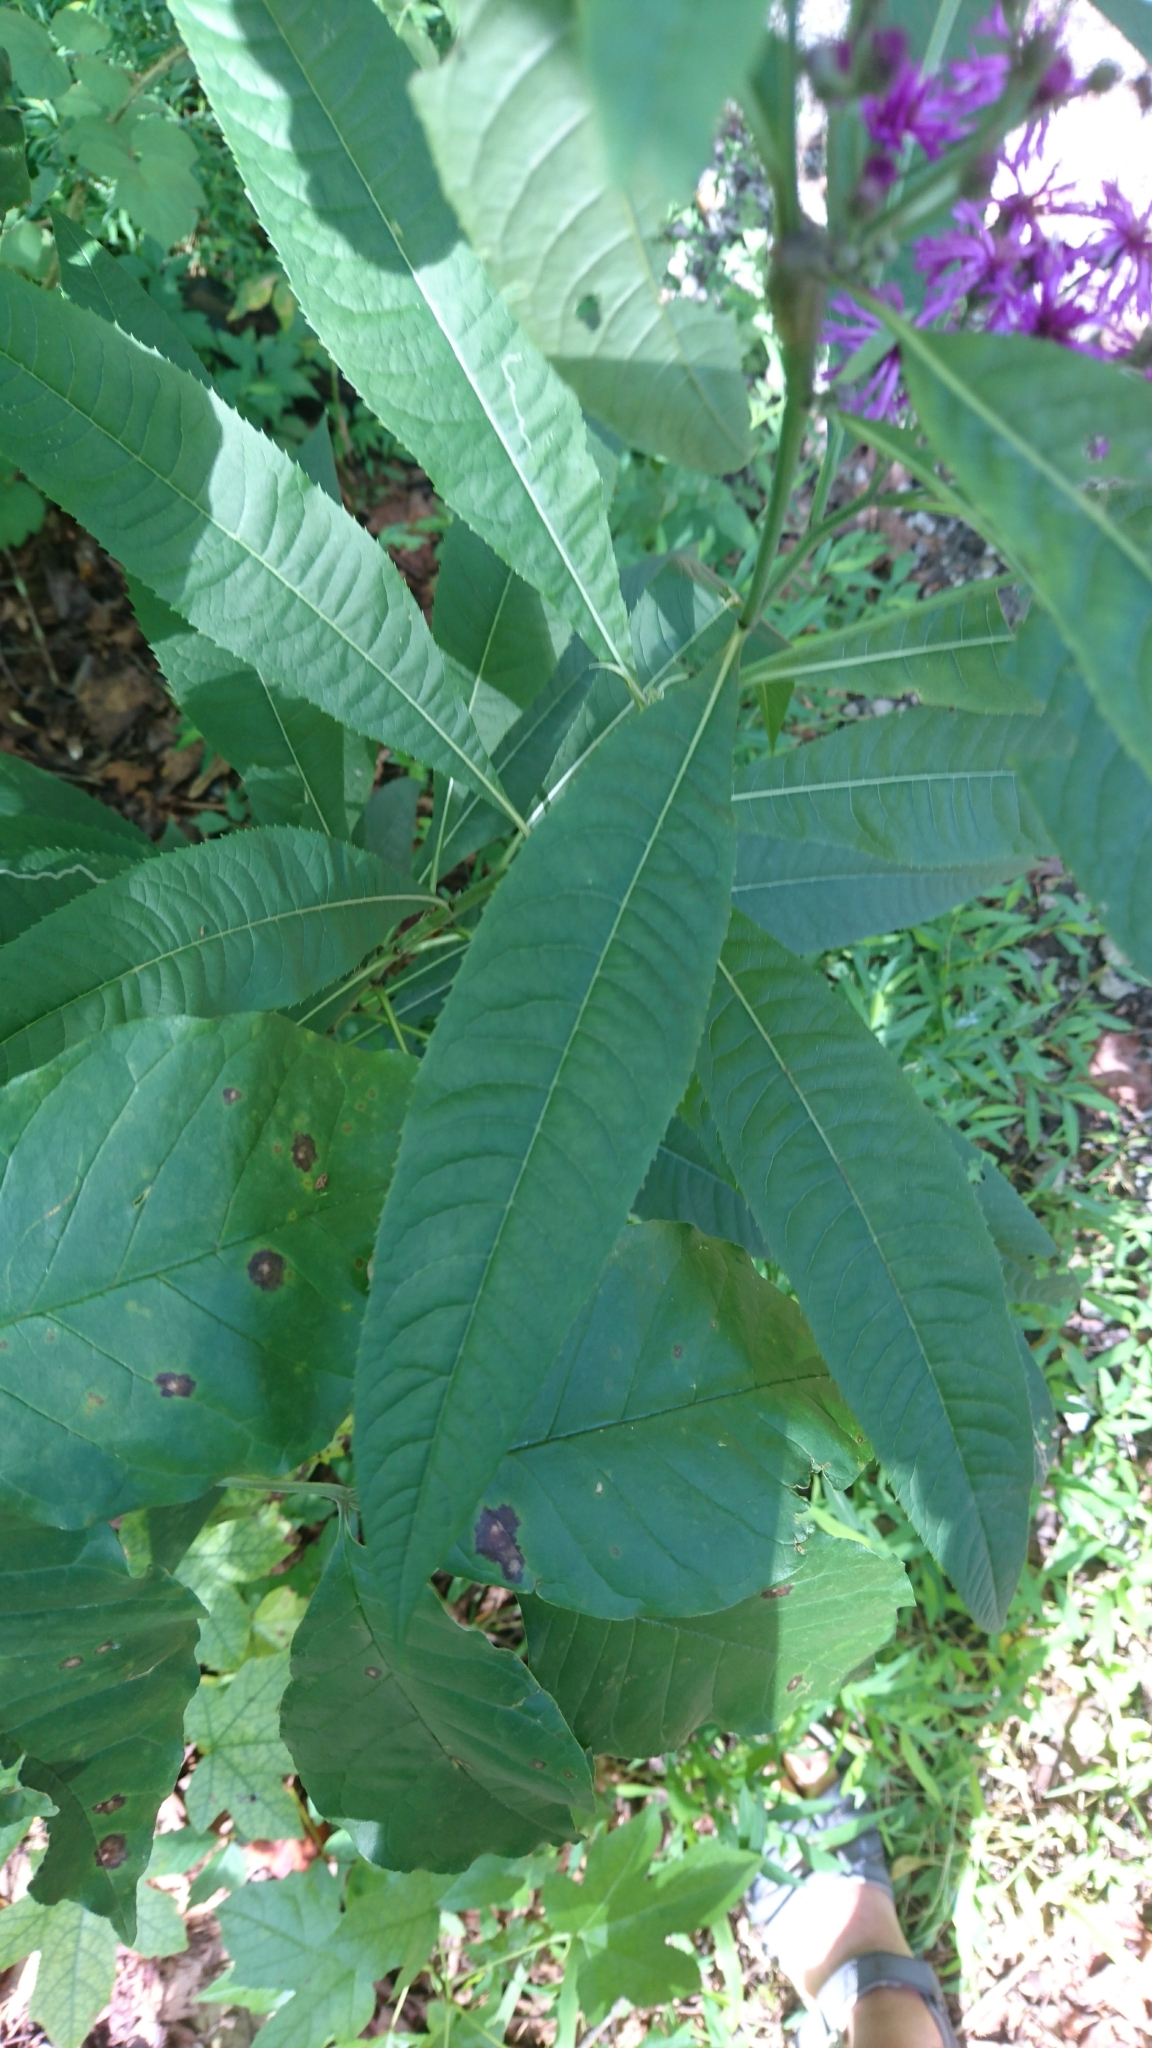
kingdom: Plantae
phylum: Tracheophyta
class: Magnoliopsida
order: Asterales
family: Asteraceae
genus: Vernonia
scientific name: Vernonia gigantea
